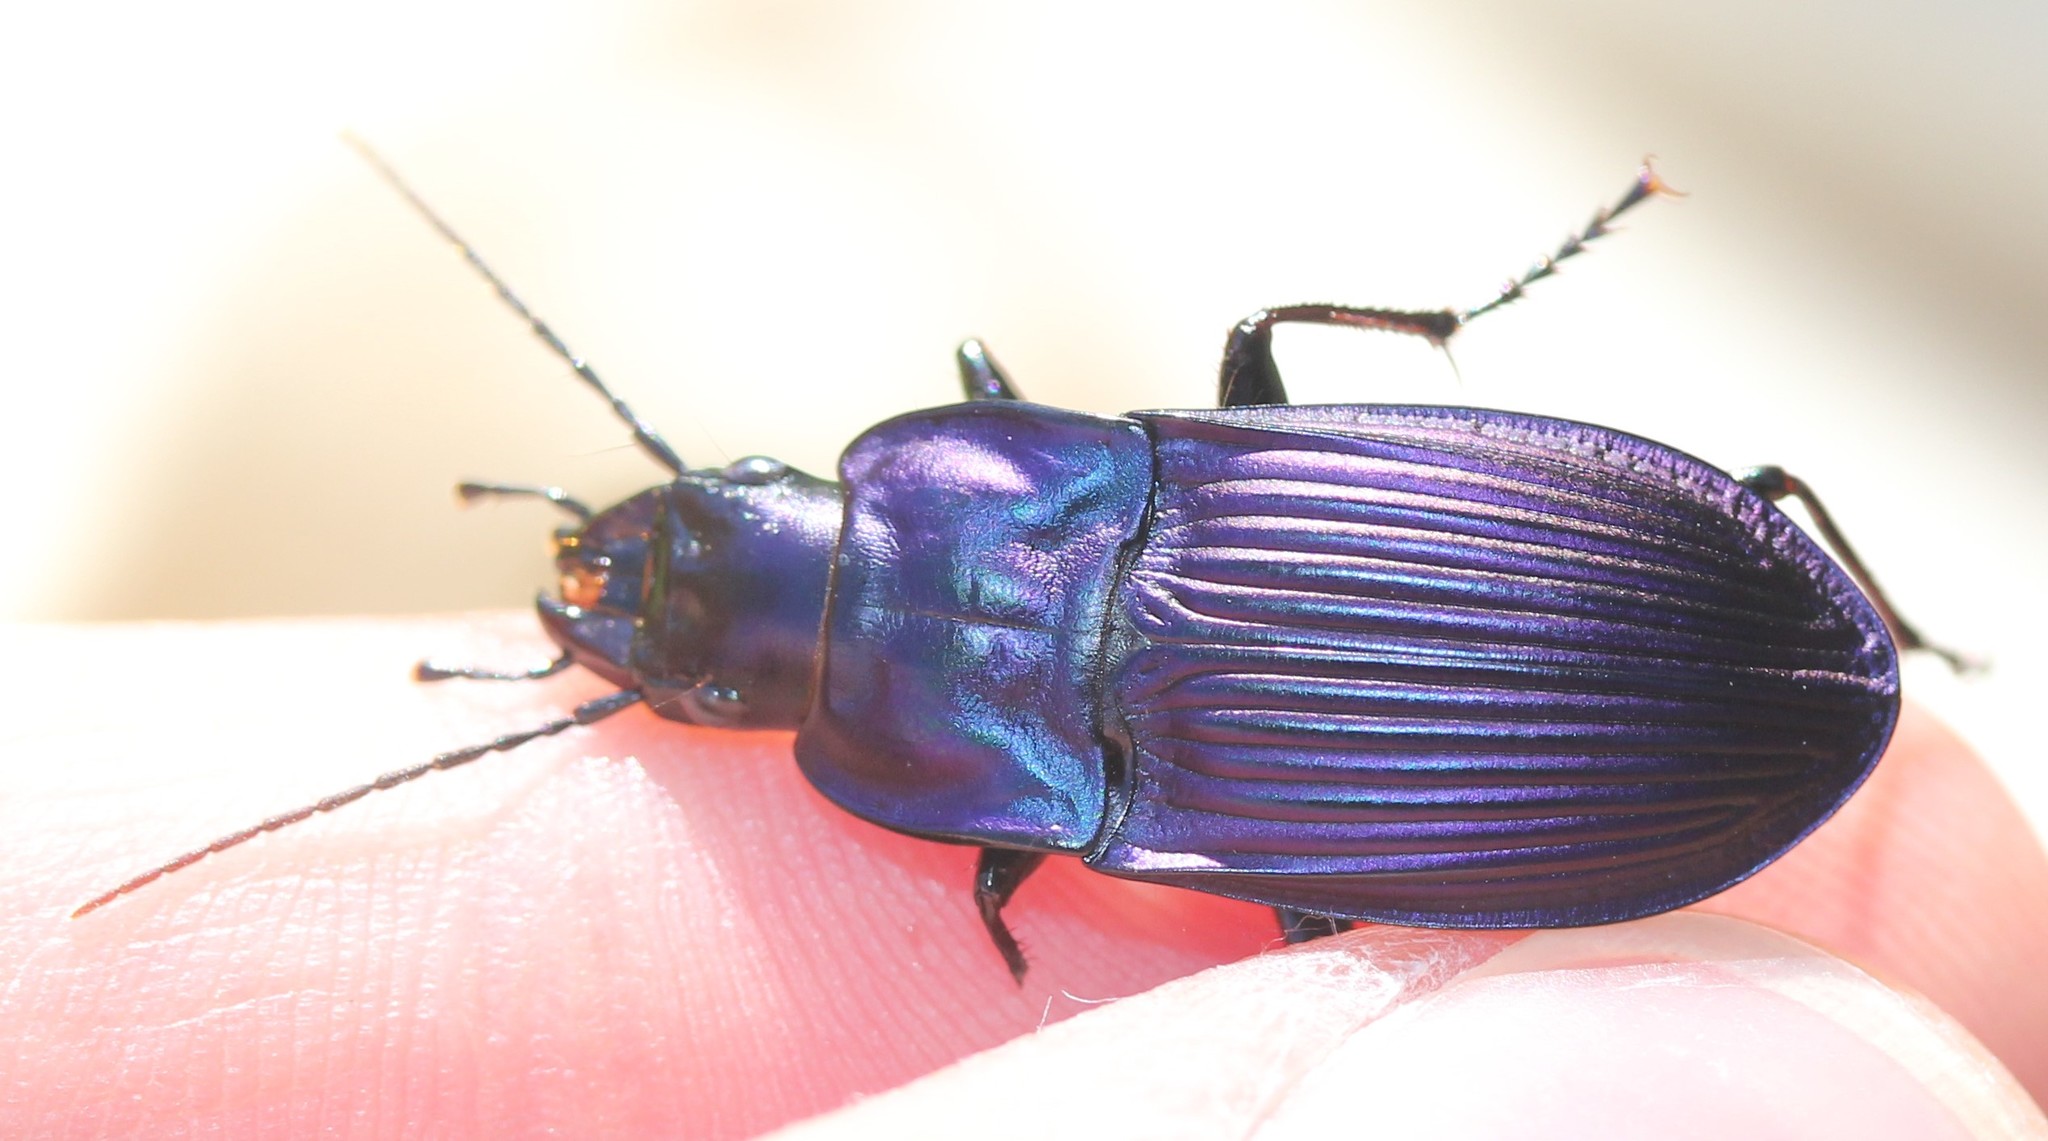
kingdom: Animalia
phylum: Arthropoda
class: Insecta
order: Coleoptera
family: Carabidae
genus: Dicaelus
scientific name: Dicaelus purpuratus
